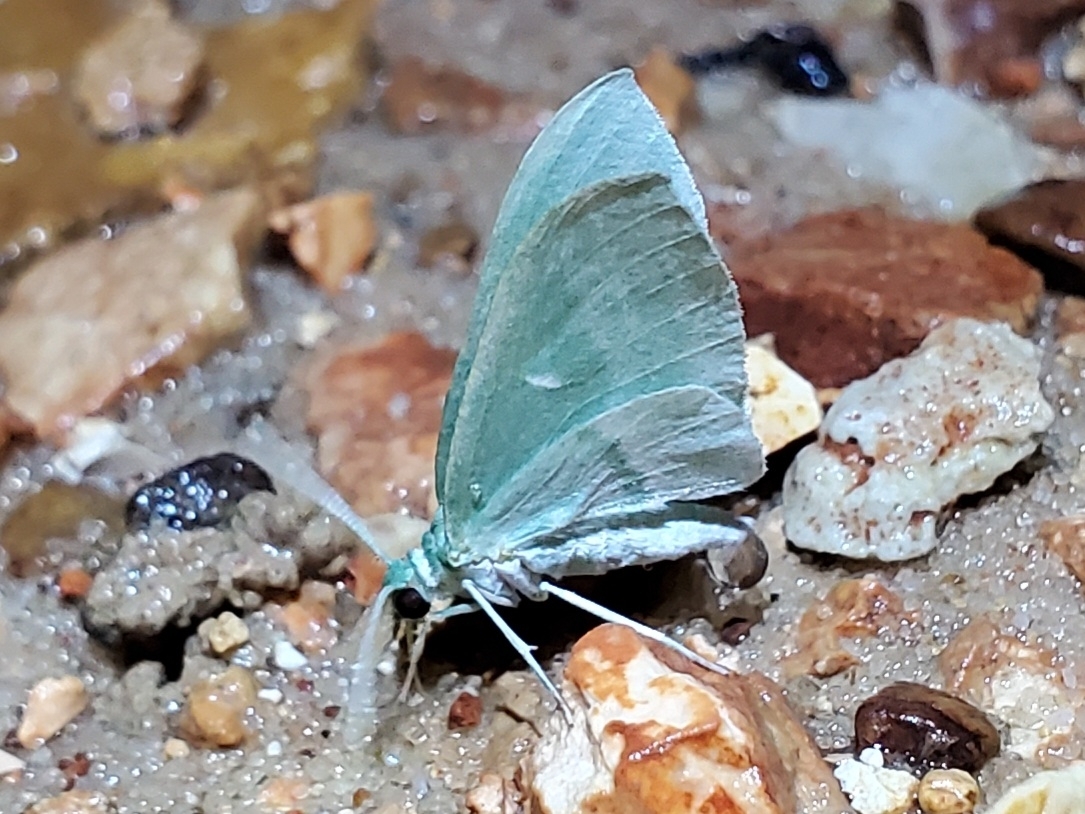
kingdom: Animalia
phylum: Arthropoda
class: Insecta
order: Lepidoptera
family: Geometridae
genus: Dyspteris
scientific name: Dyspteris abortivaria
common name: Bad-wing
